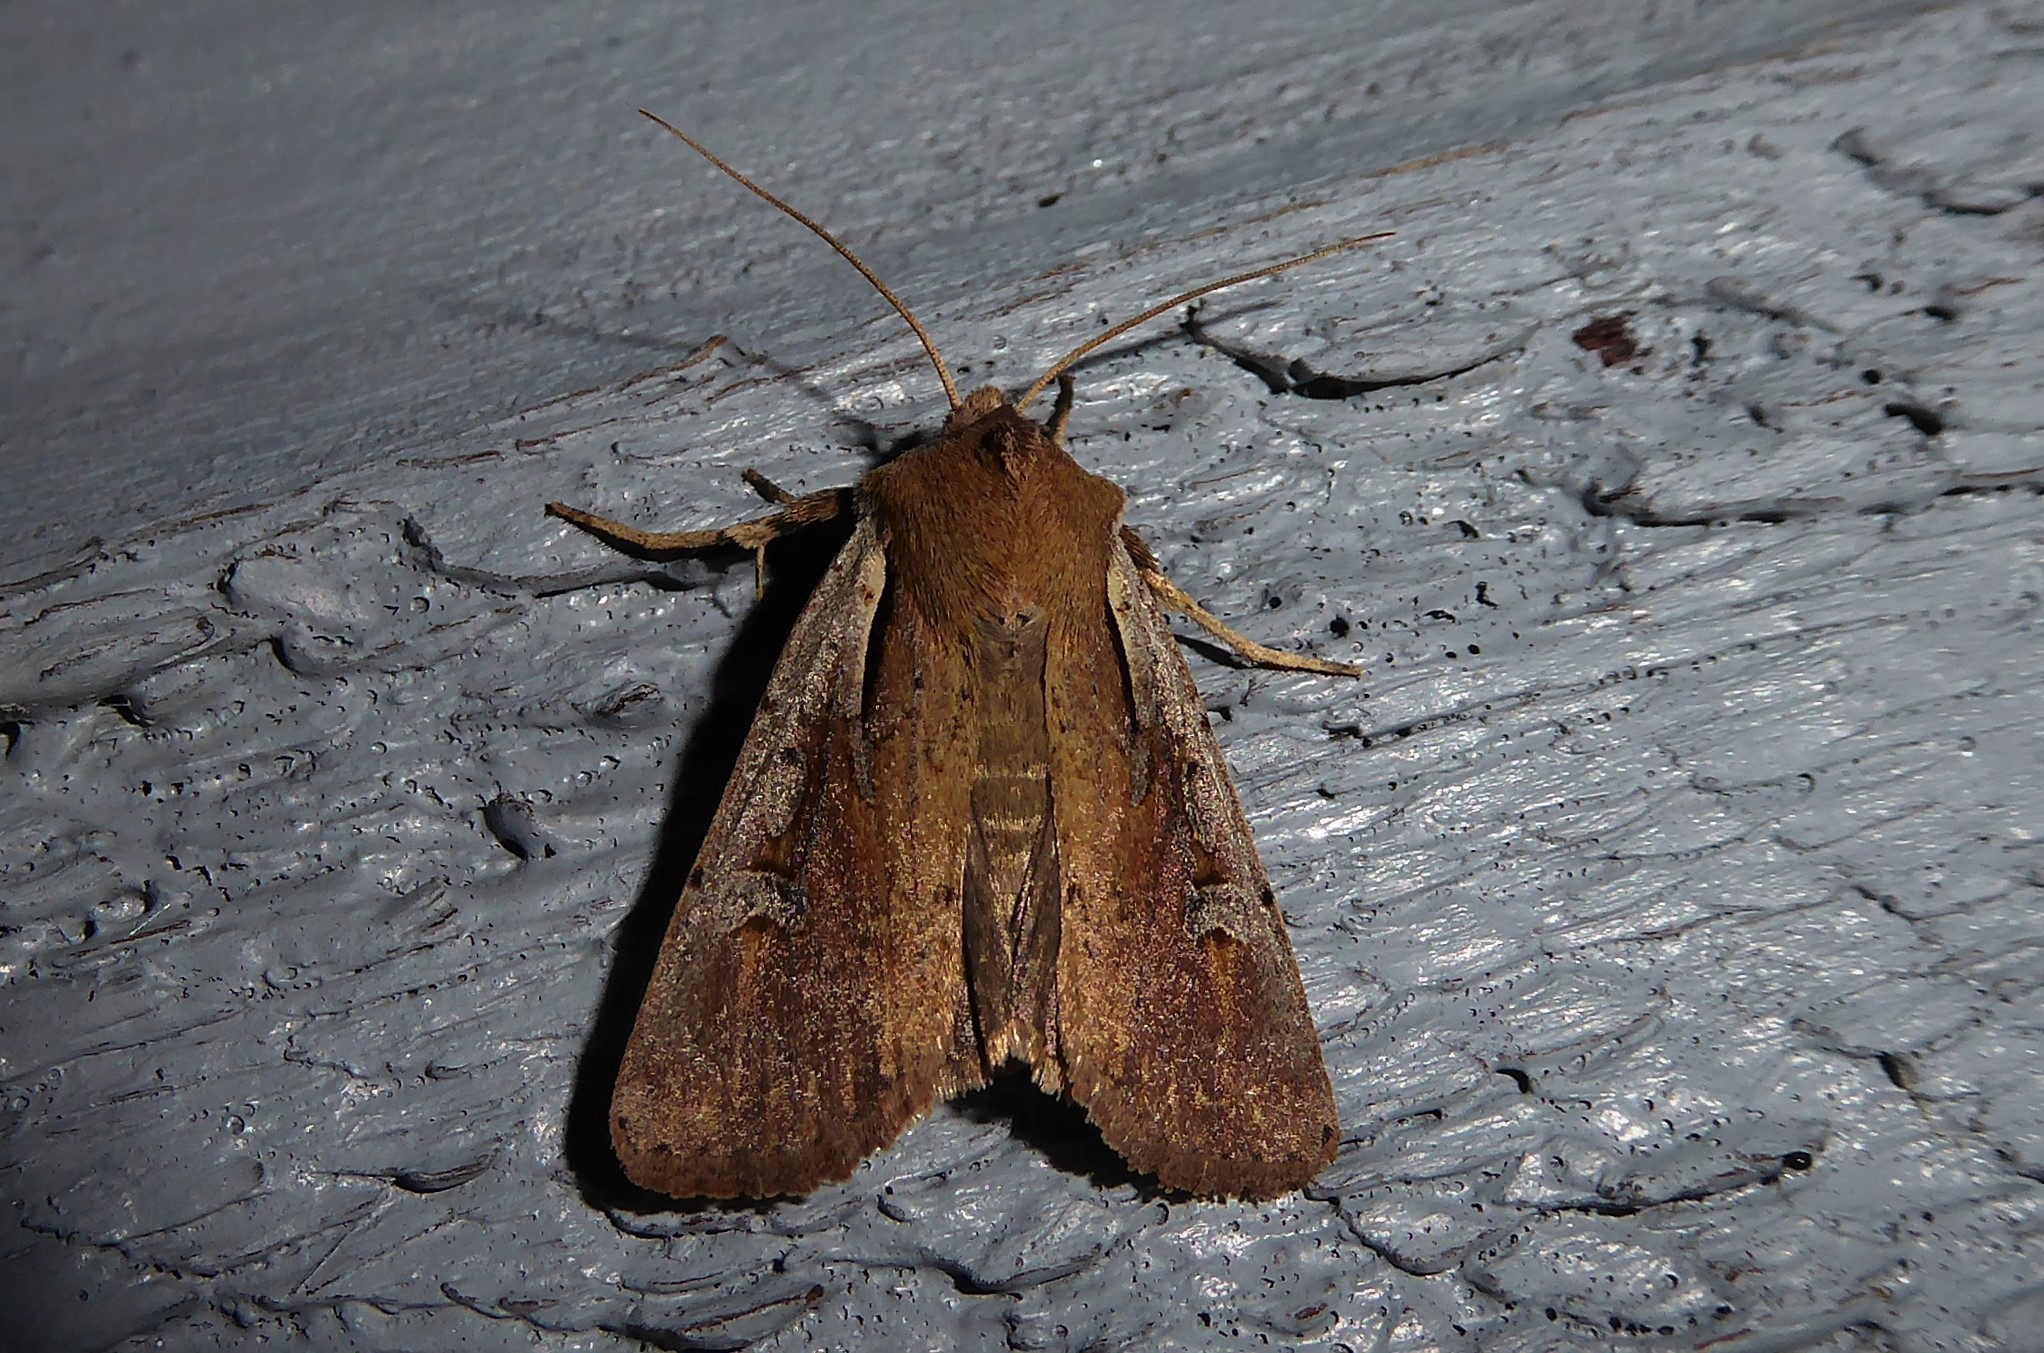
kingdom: Animalia
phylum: Arthropoda
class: Insecta
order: Lepidoptera
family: Noctuidae
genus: Ichneutica
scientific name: Ichneutica atristriga
